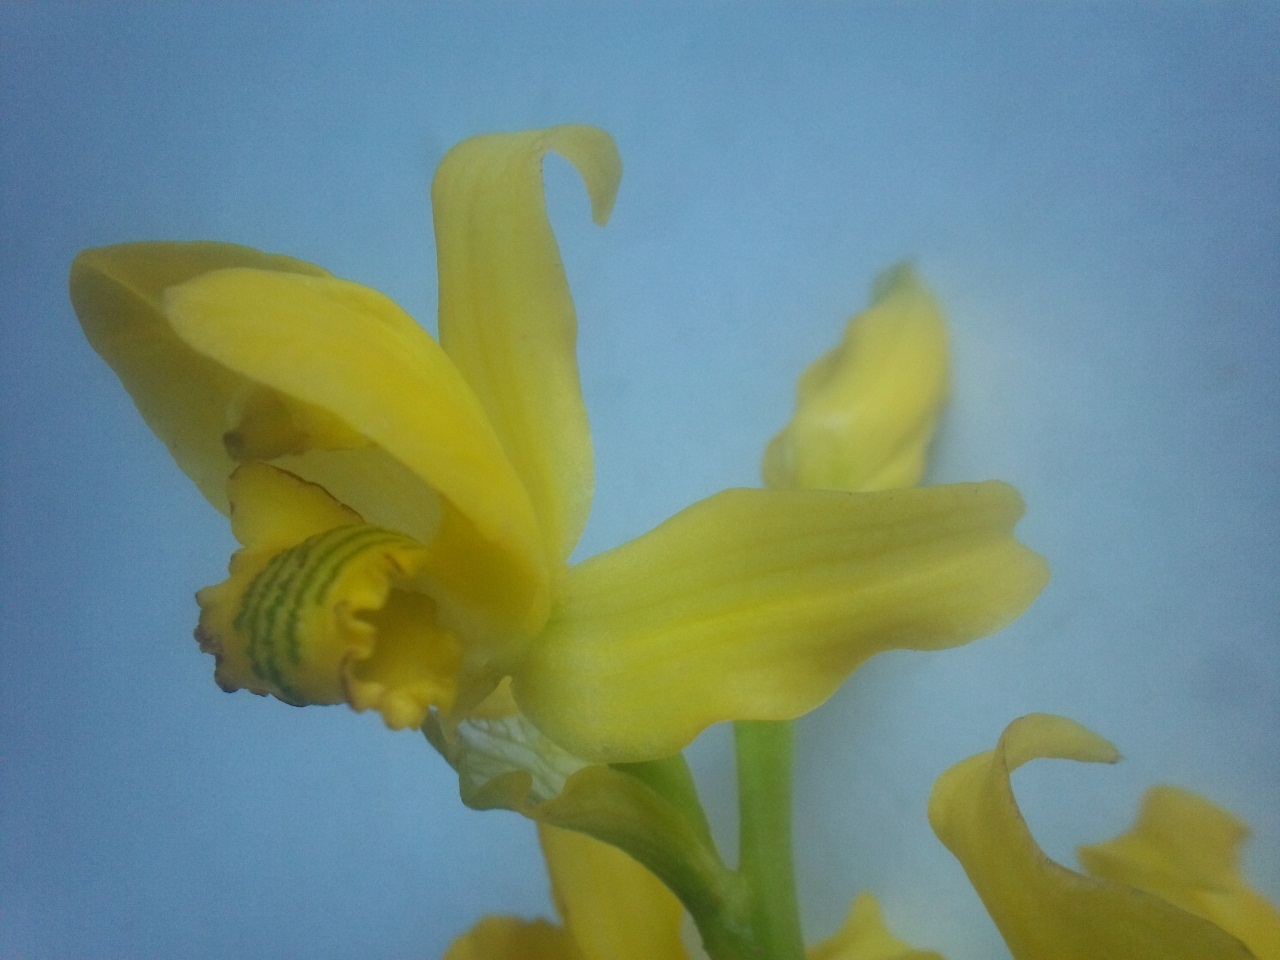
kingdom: Plantae
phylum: Tracheophyta
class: Liliopsida
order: Asparagales
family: Orchidaceae
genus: Chloraea
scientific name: Chloraea multilineolata
